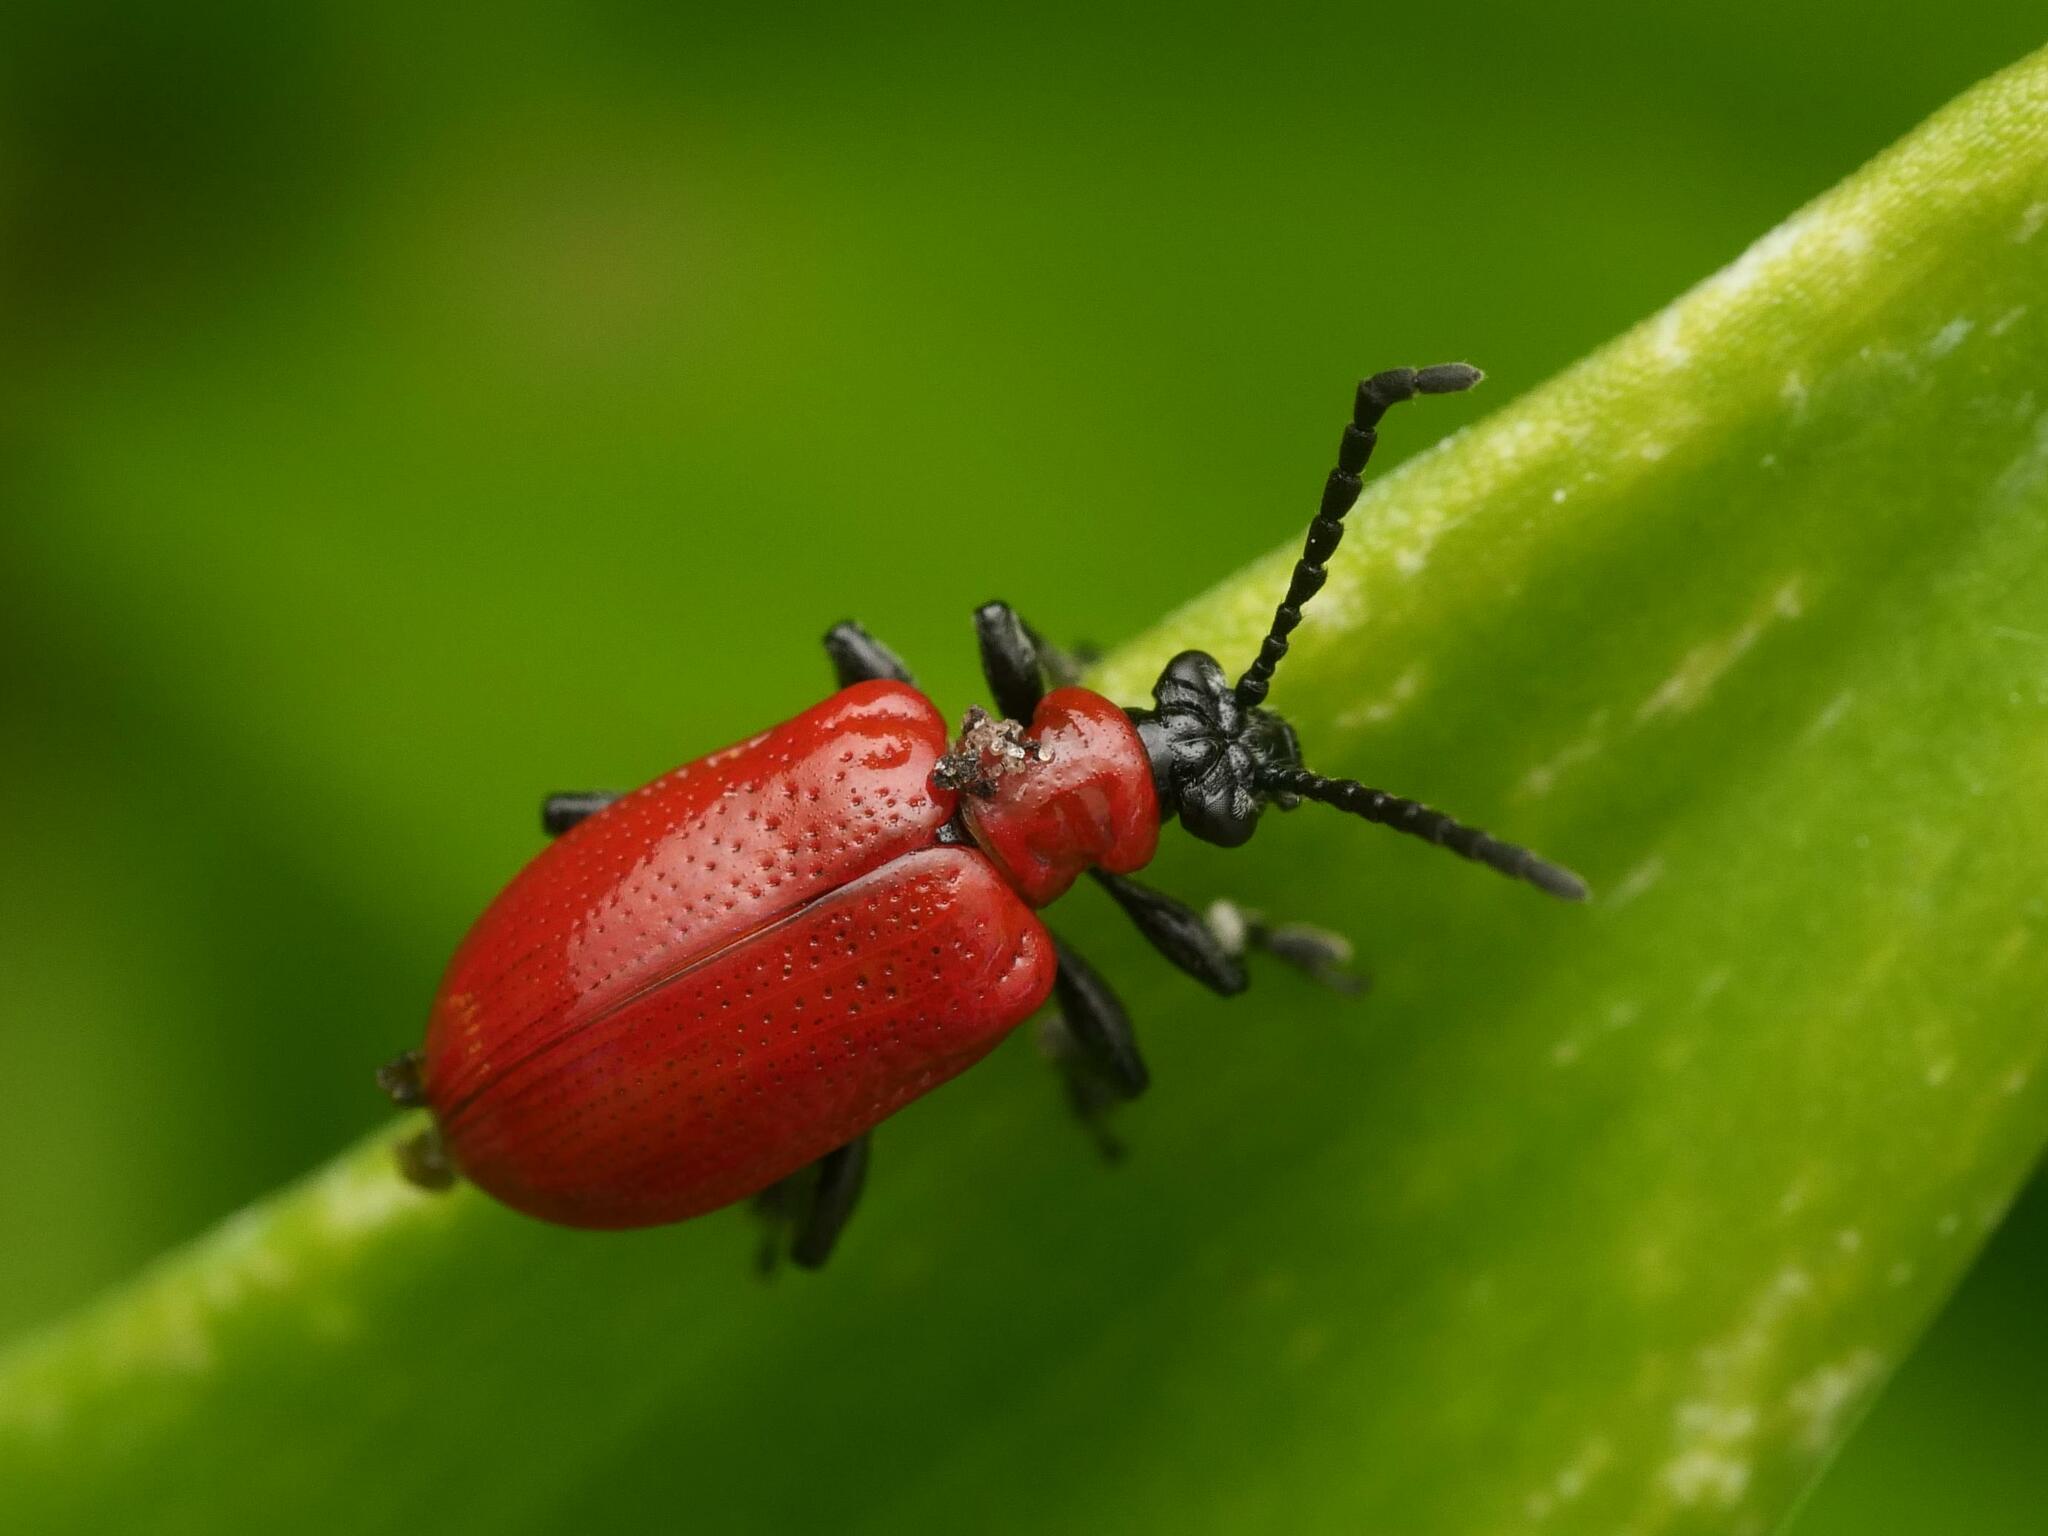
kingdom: Animalia
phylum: Arthropoda
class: Insecta
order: Coleoptera
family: Chrysomelidae
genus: Lilioceris
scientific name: Lilioceris lilii
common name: Lily beetle
